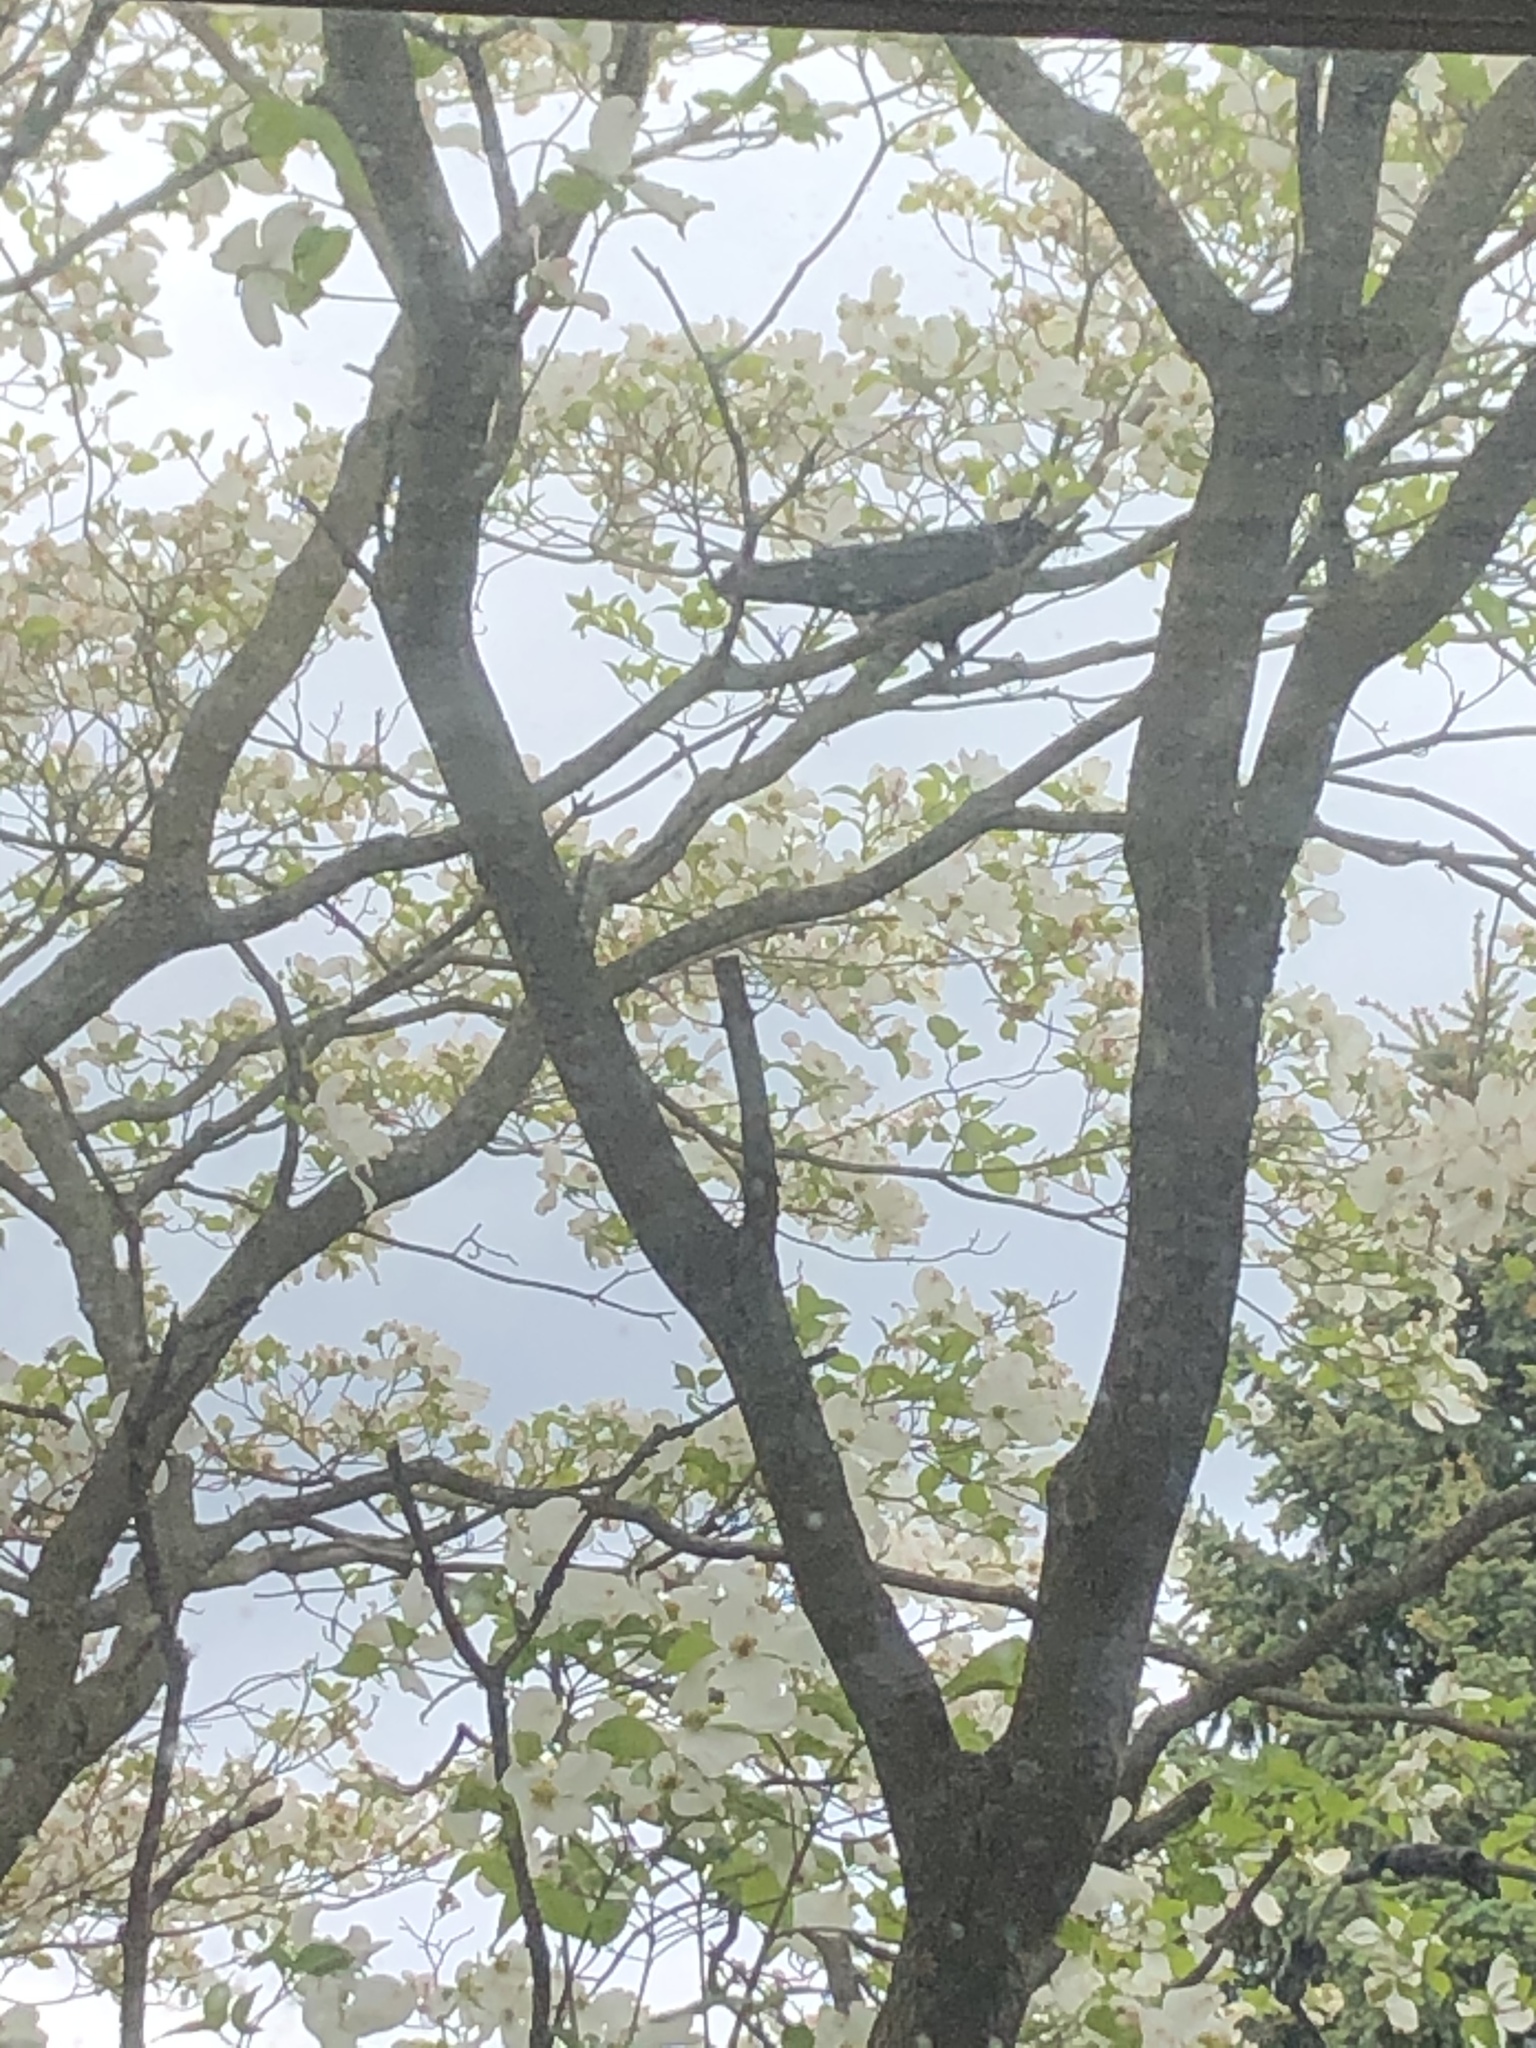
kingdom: Animalia
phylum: Chordata
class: Aves
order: Passeriformes
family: Corvidae
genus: Corvus
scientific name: Corvus
